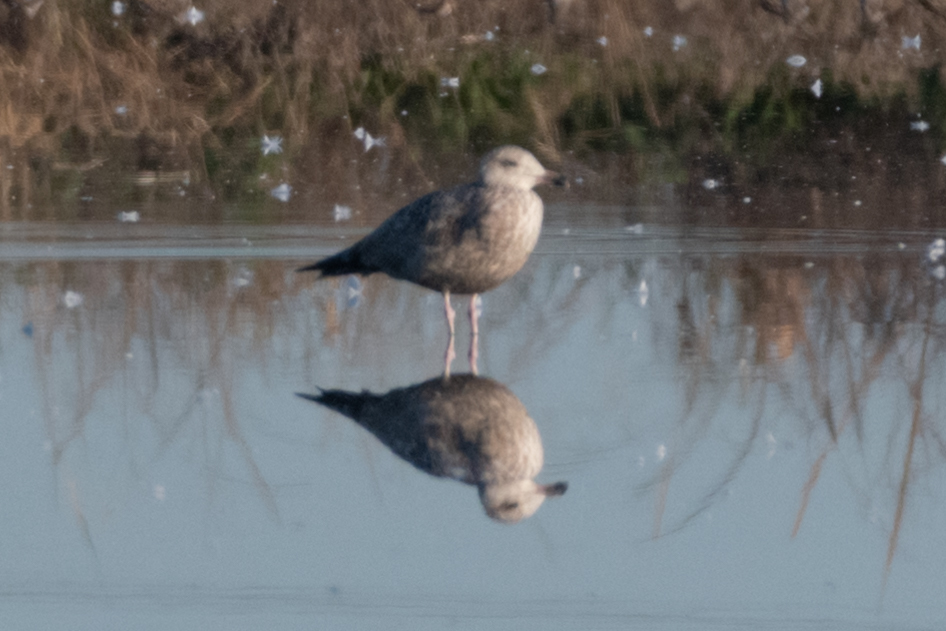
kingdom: Animalia
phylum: Chordata
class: Aves
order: Charadriiformes
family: Laridae
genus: Larus
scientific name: Larus argentatus
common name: Herring gull
